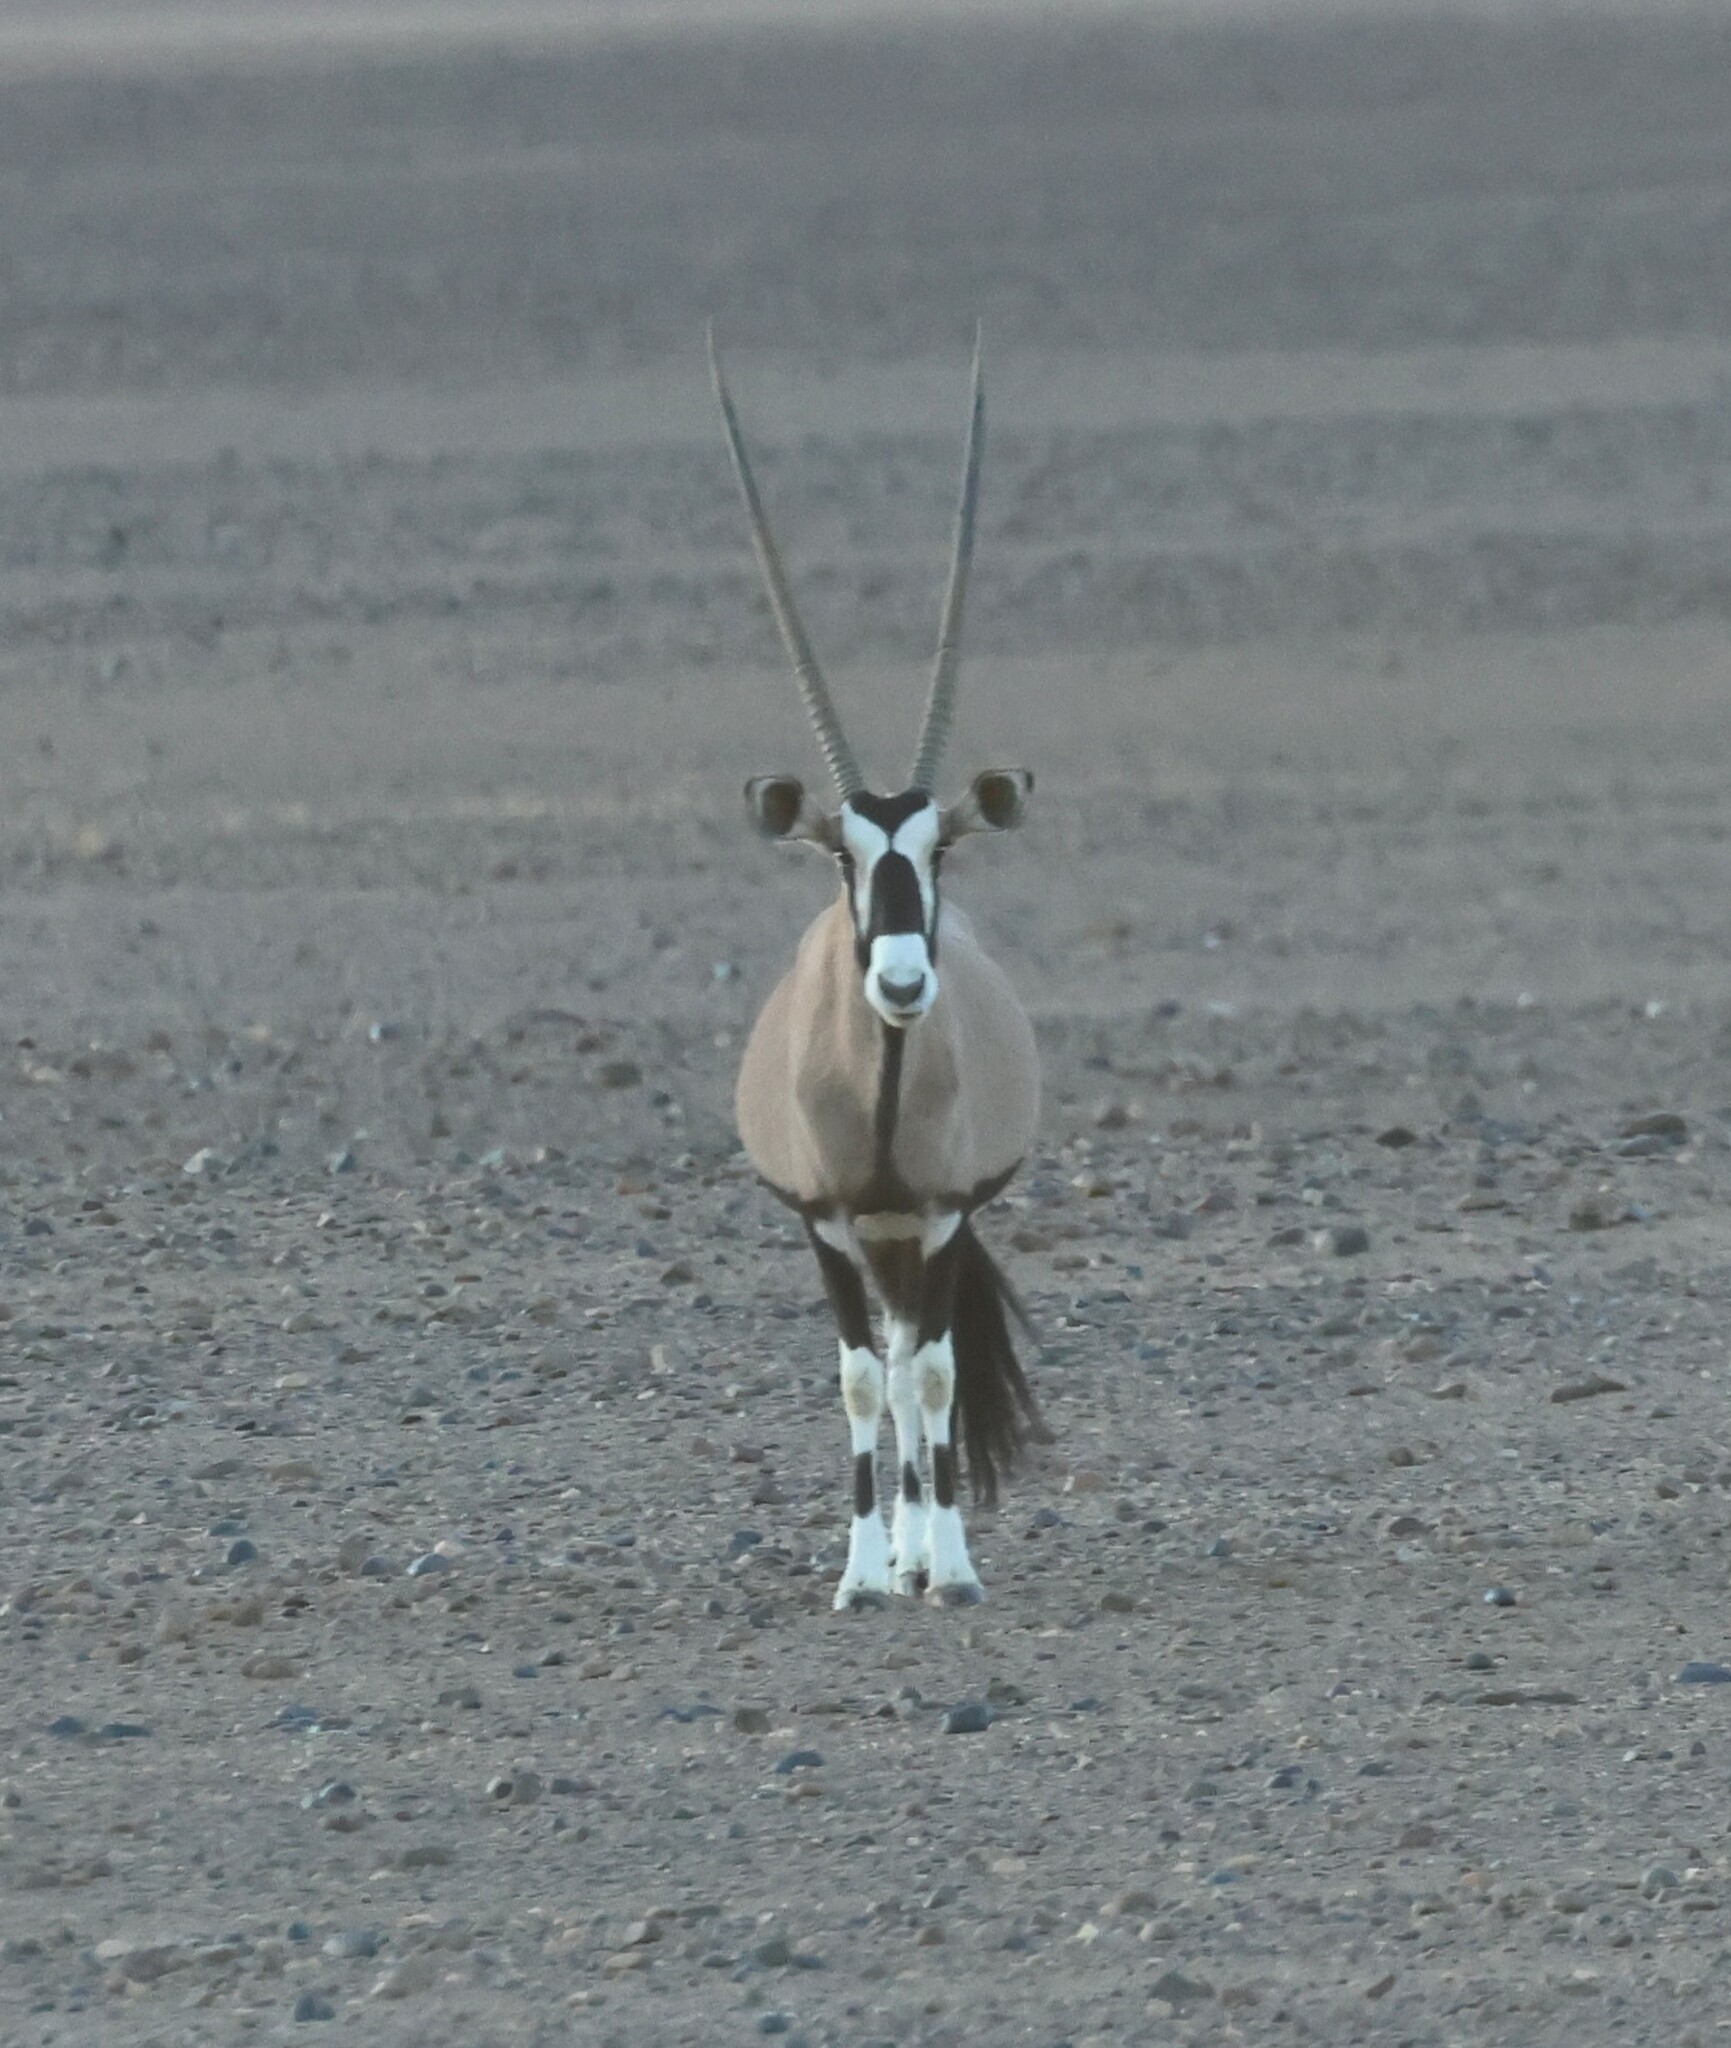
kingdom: Animalia
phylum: Chordata
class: Mammalia
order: Artiodactyla
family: Bovidae
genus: Oryx
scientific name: Oryx gazella
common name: Gemsbok
